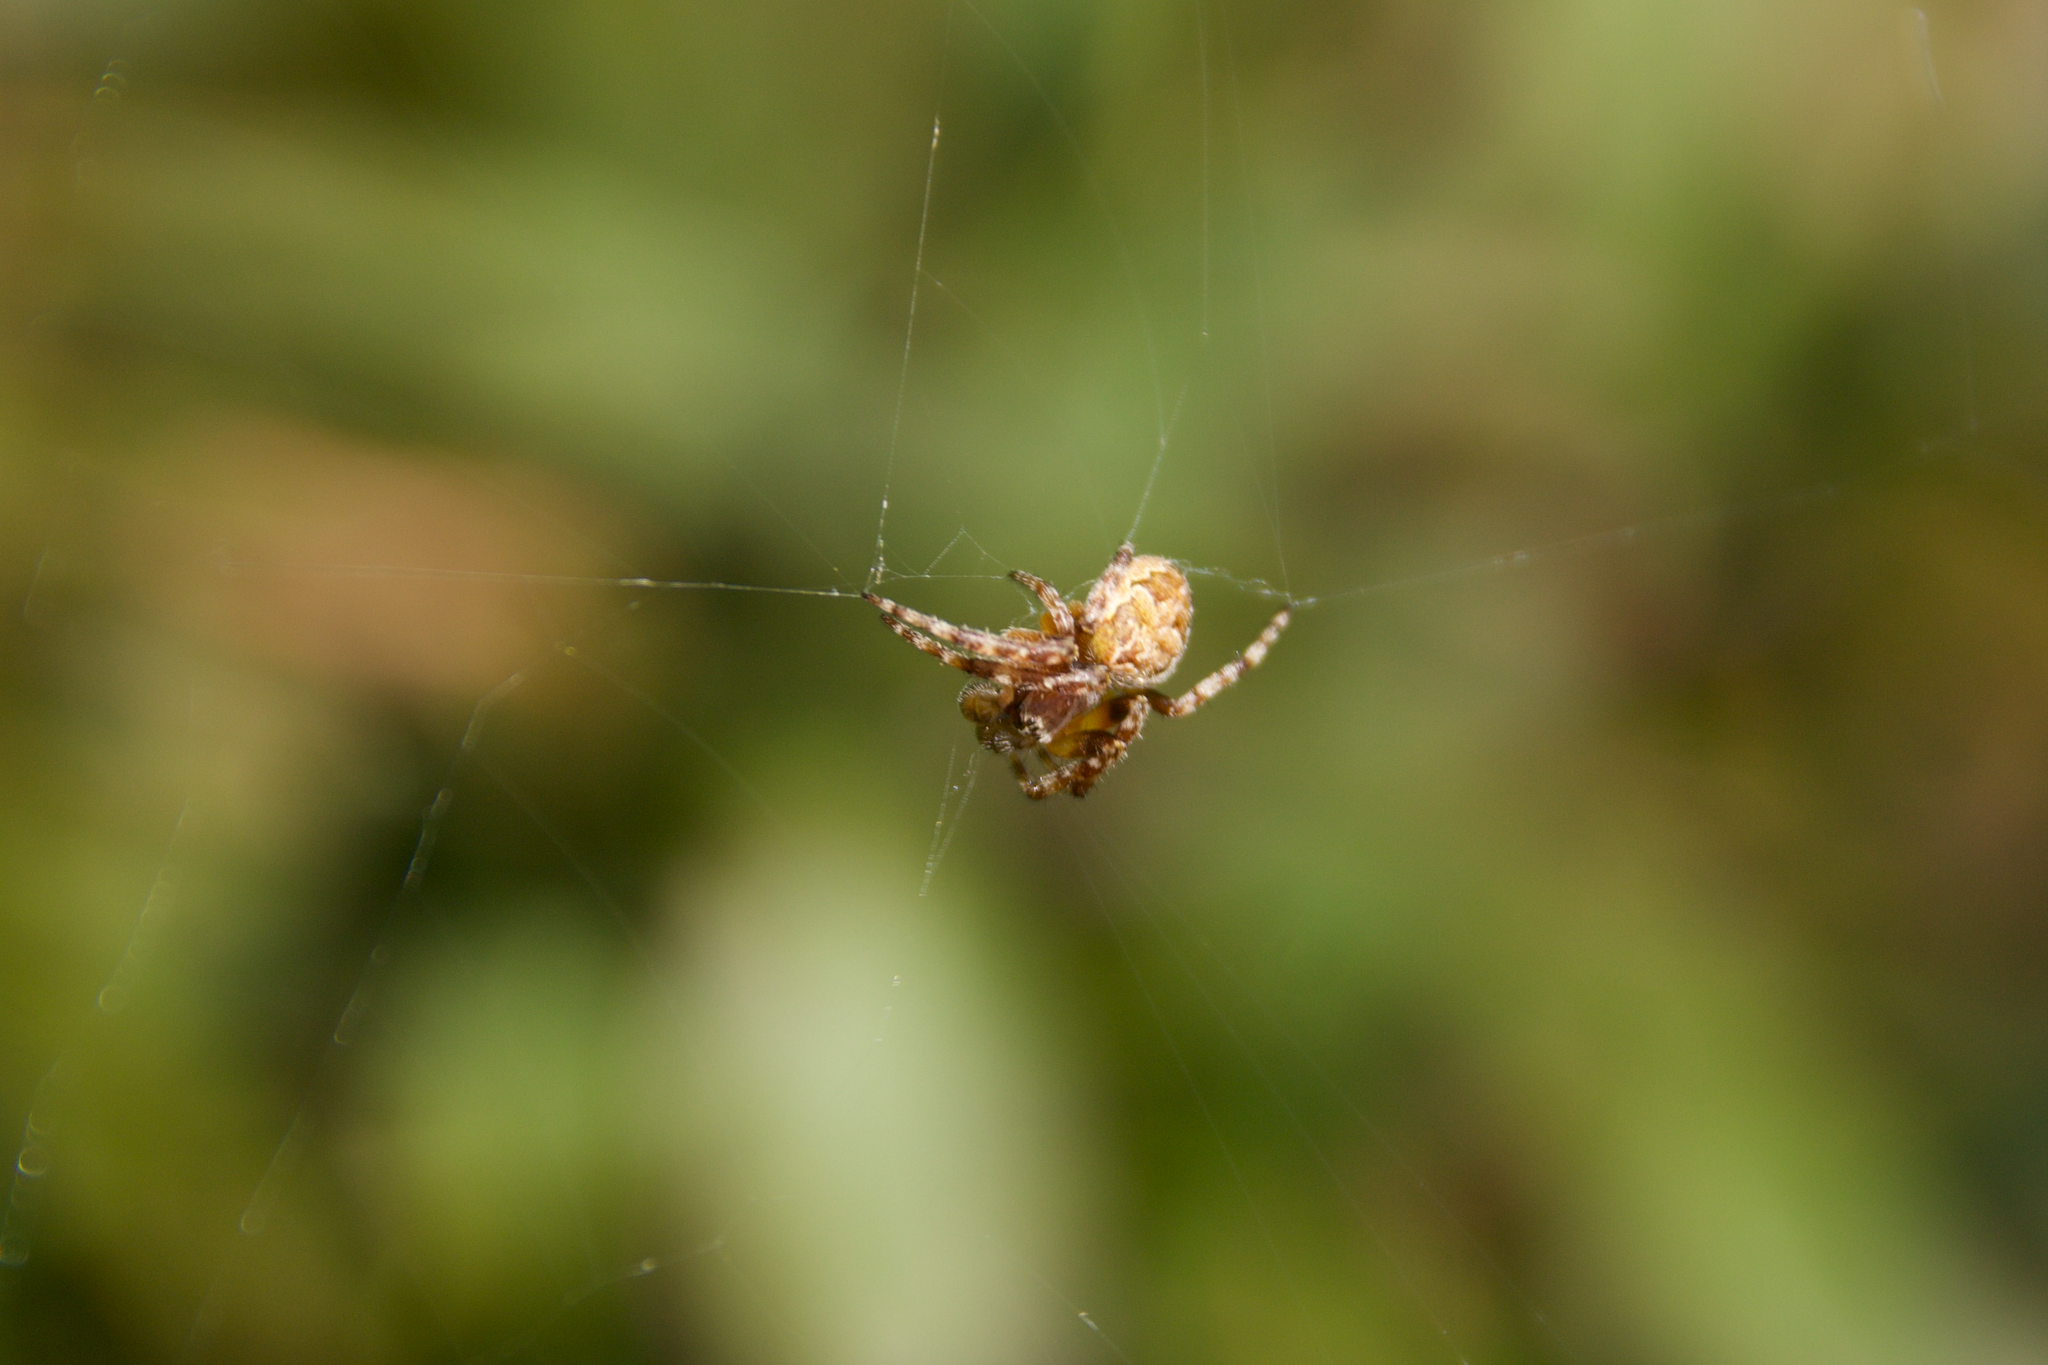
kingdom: Animalia
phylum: Arthropoda
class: Arachnida
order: Araneae
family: Araneidae
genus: Larinioides
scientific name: Larinioides
